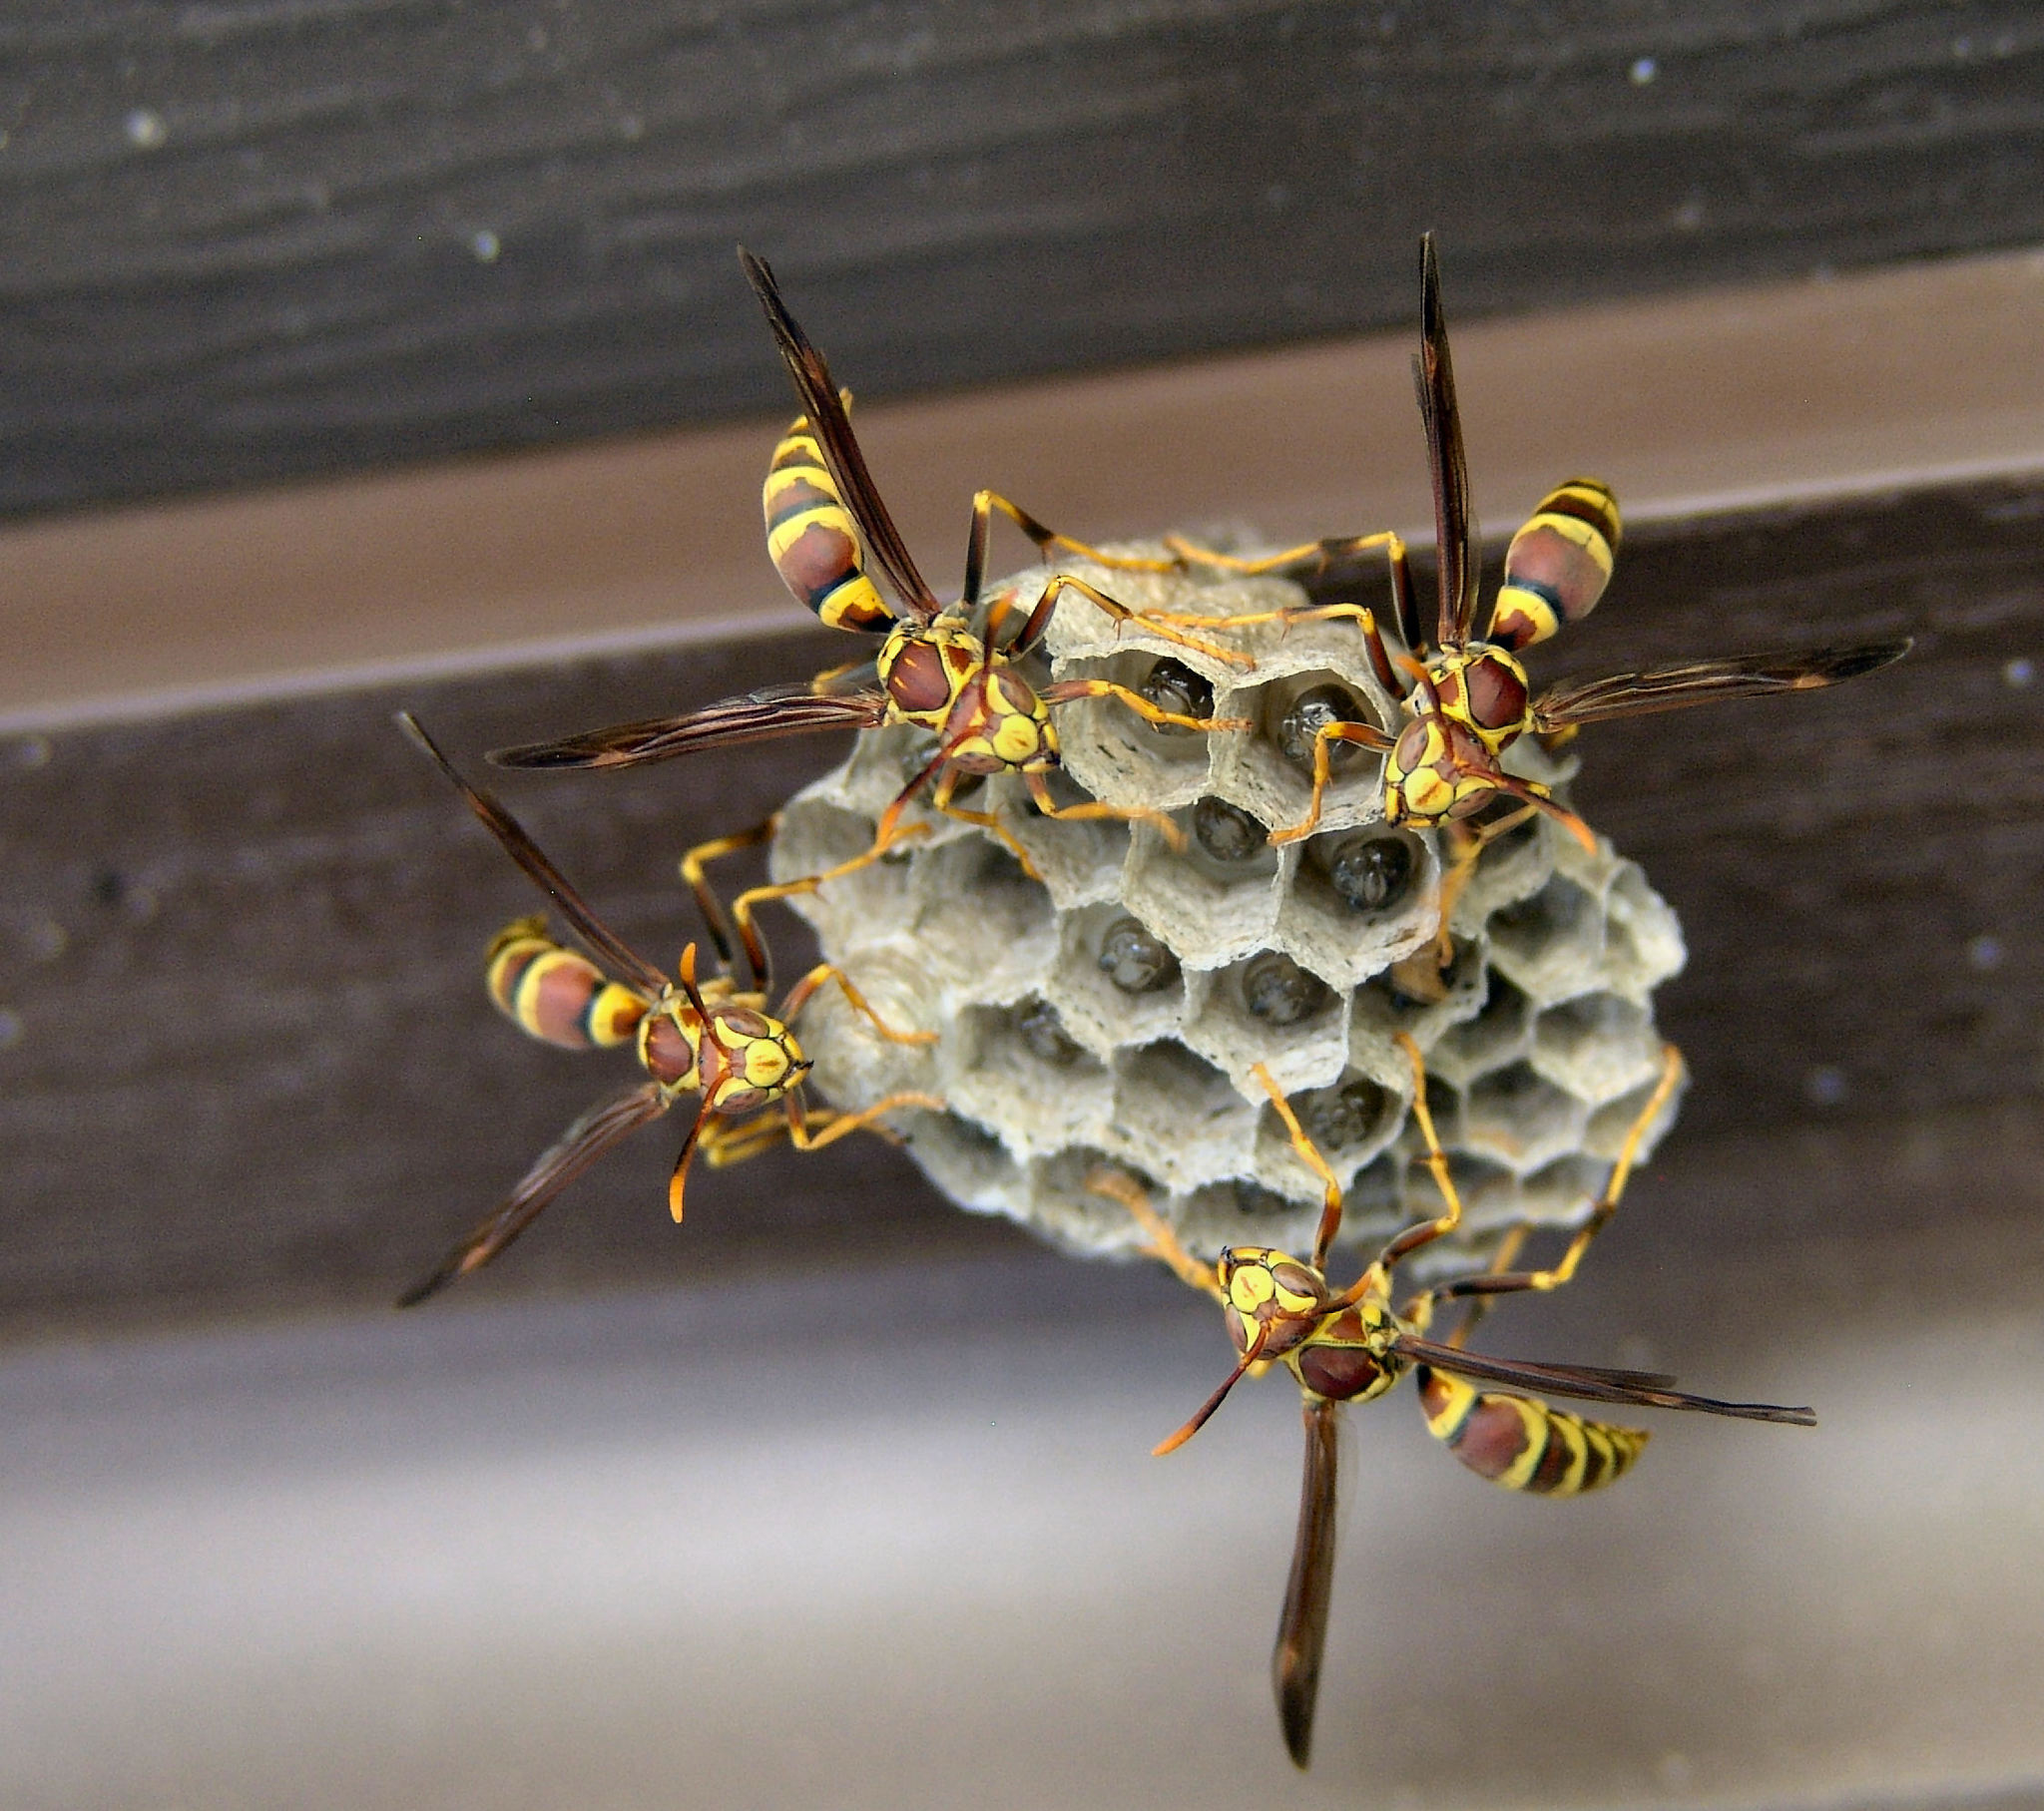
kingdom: Animalia
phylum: Arthropoda
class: Insecta
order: Hymenoptera
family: Eumenidae
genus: Polistes
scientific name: Polistes exclamans
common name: Paper wasp
